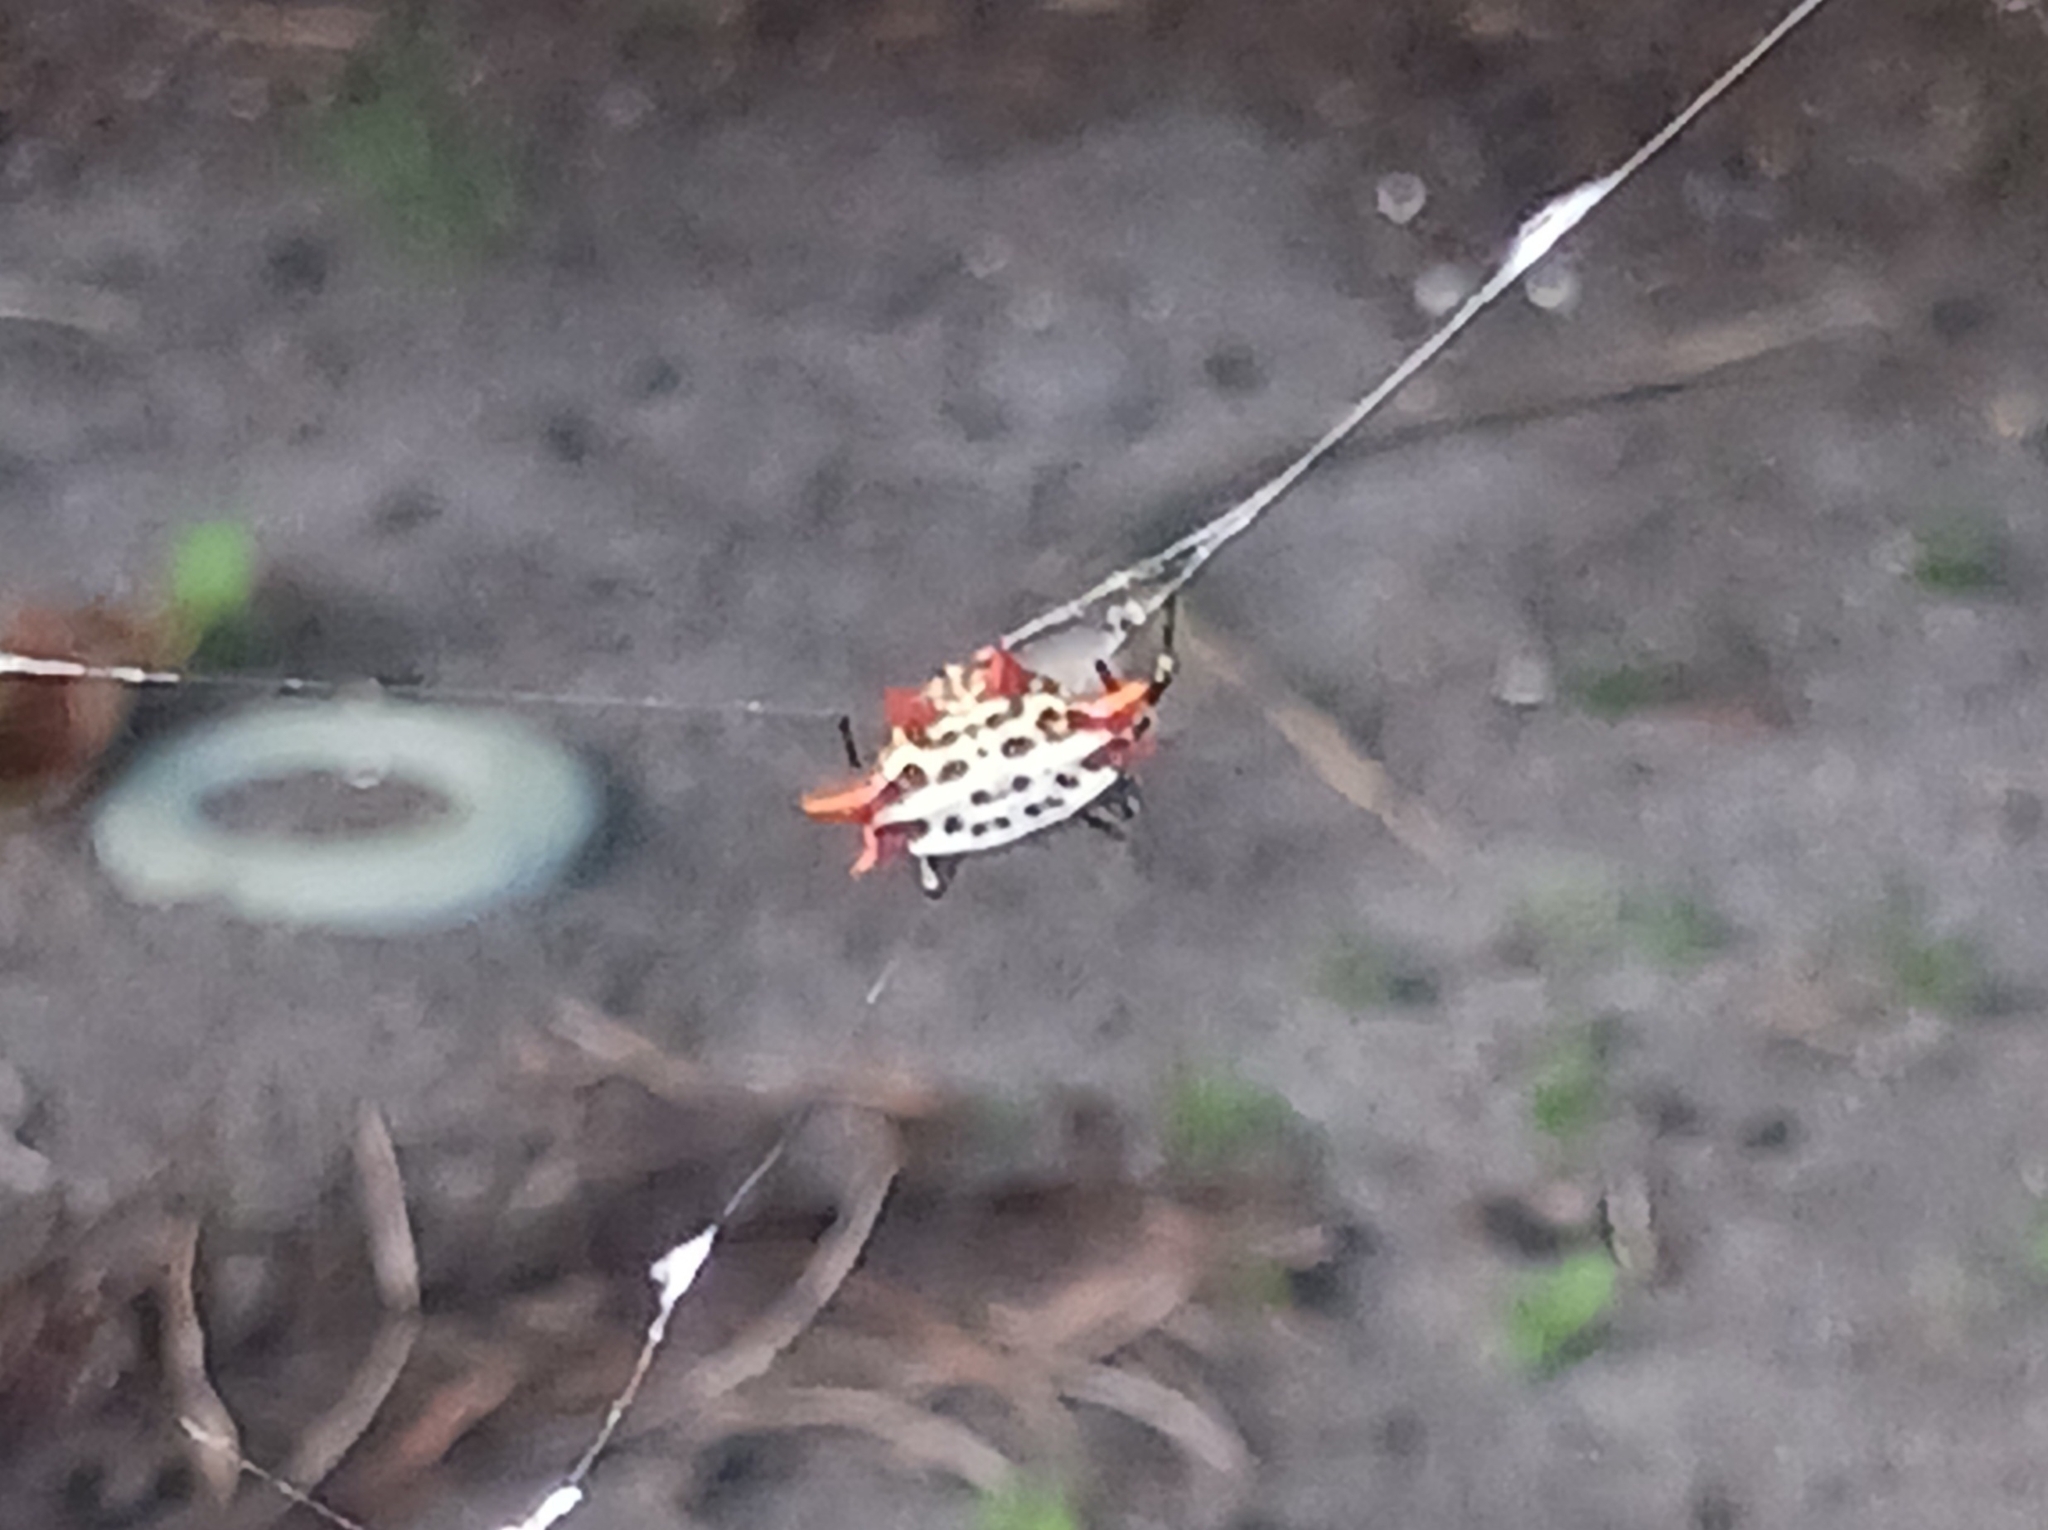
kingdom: Animalia
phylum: Arthropoda
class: Arachnida
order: Araneae
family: Araneidae
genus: Gasteracantha
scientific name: Gasteracantha cancriformis
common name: Orb weavers
